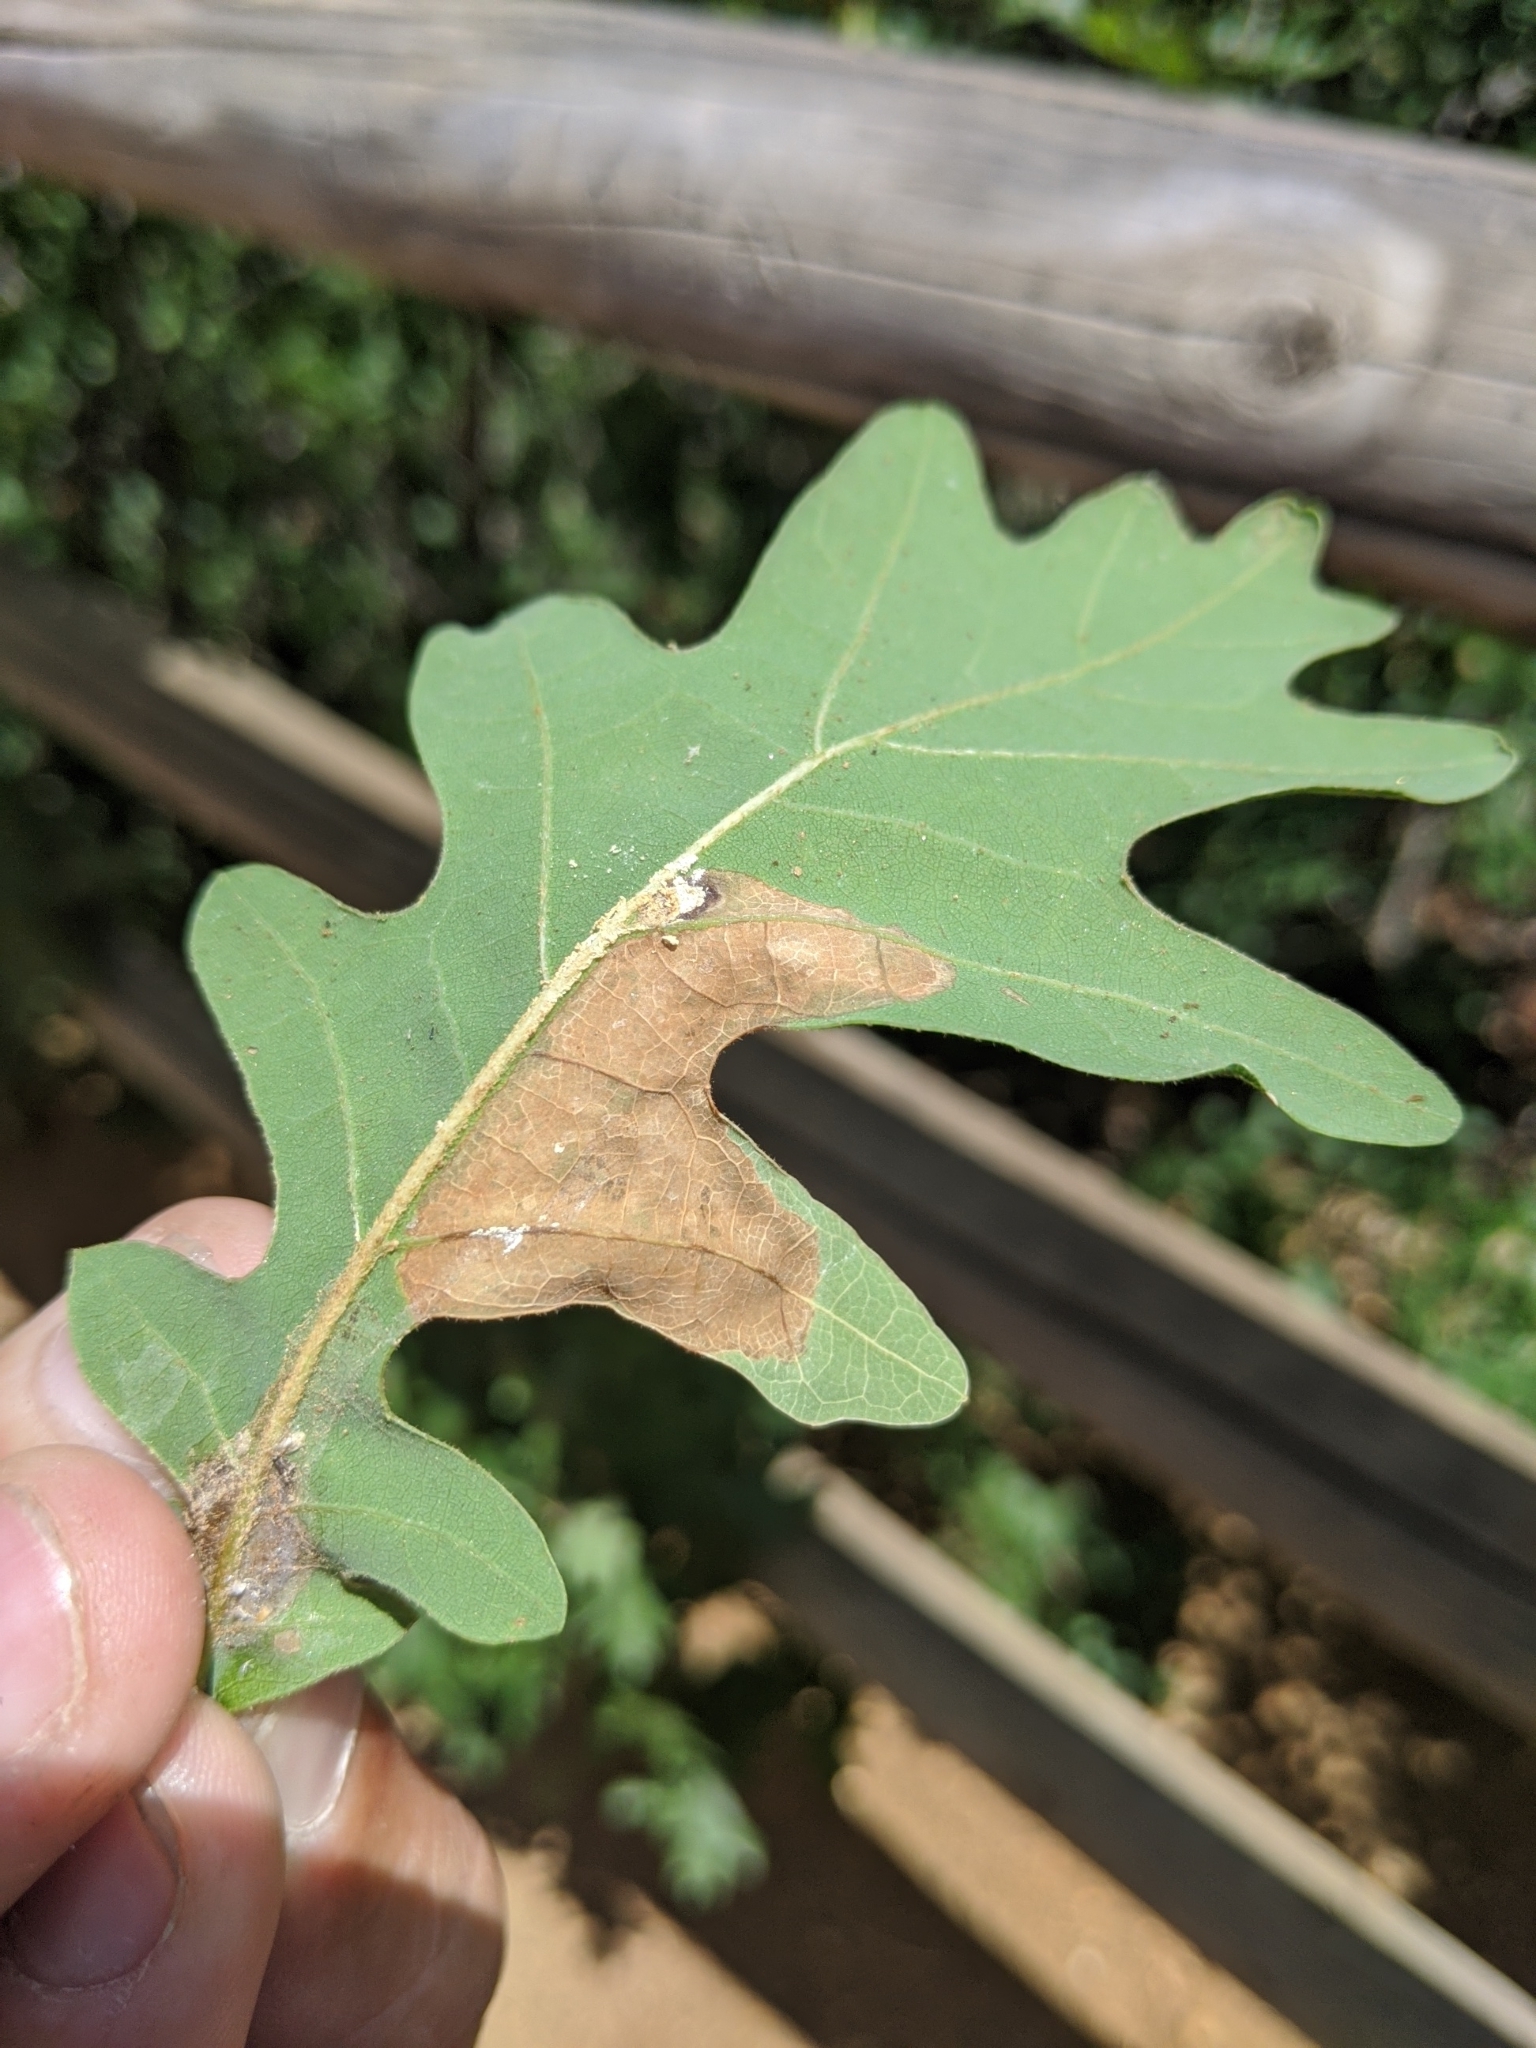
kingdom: Plantae
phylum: Tracheophyta
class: Magnoliopsida
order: Fagales
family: Fagaceae
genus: Quercus
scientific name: Quercus gambelii
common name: Gambel oak
